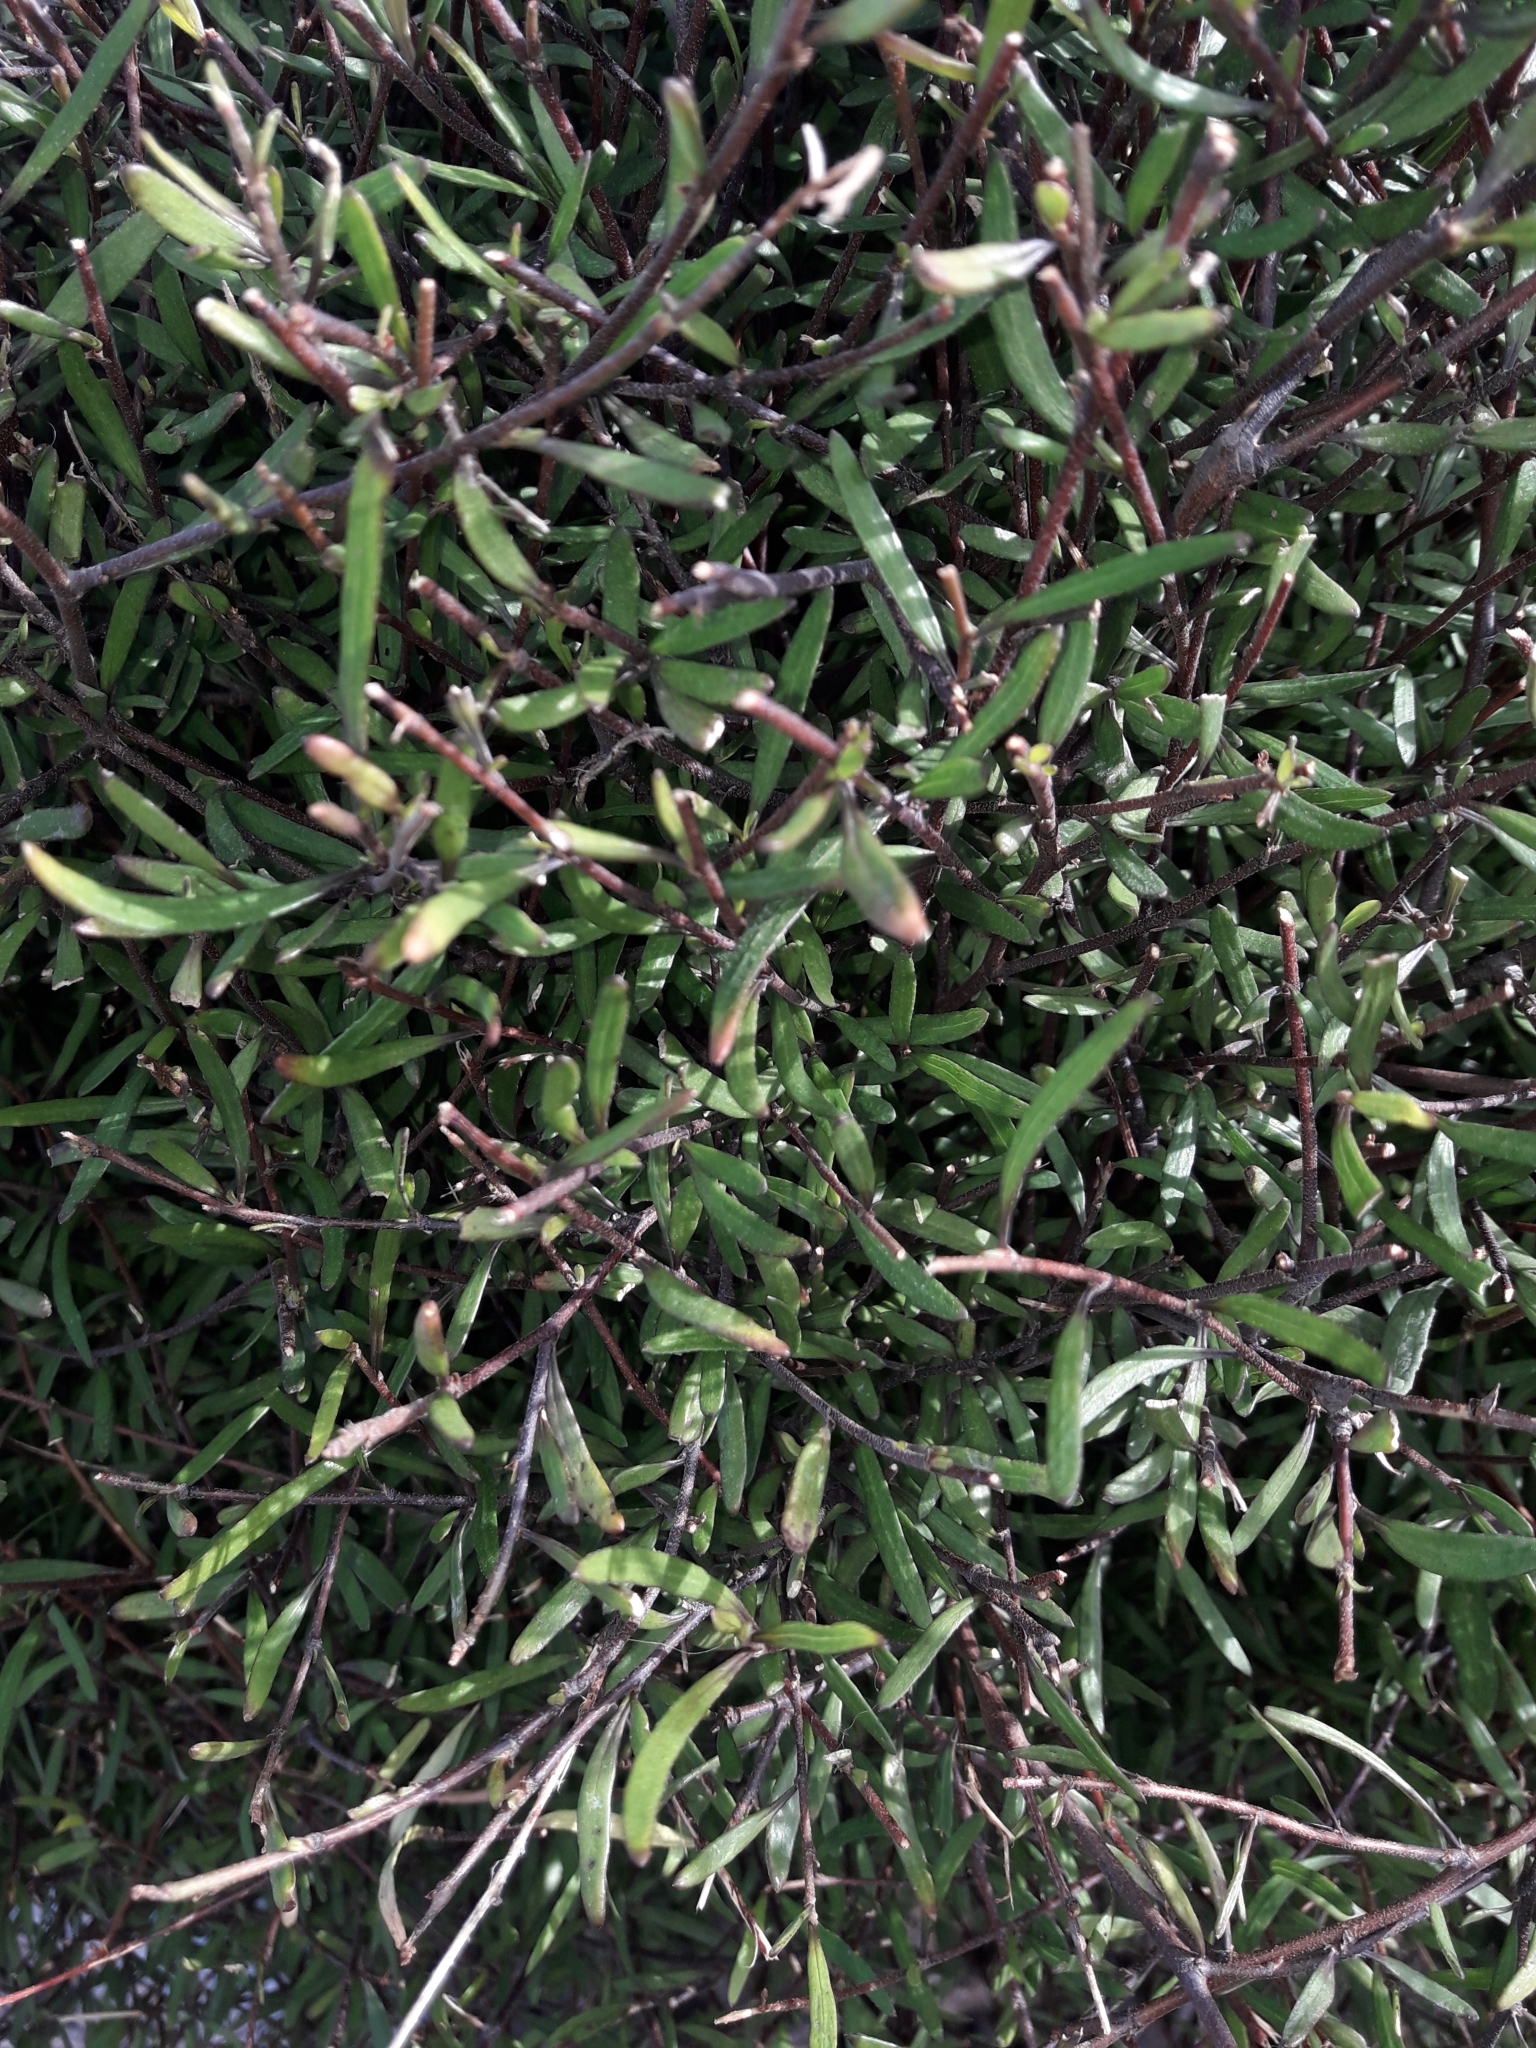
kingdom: Plantae
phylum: Tracheophyta
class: Magnoliopsida
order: Malvales
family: Malvaceae
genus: Plagianthus
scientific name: Plagianthus divaricatus
